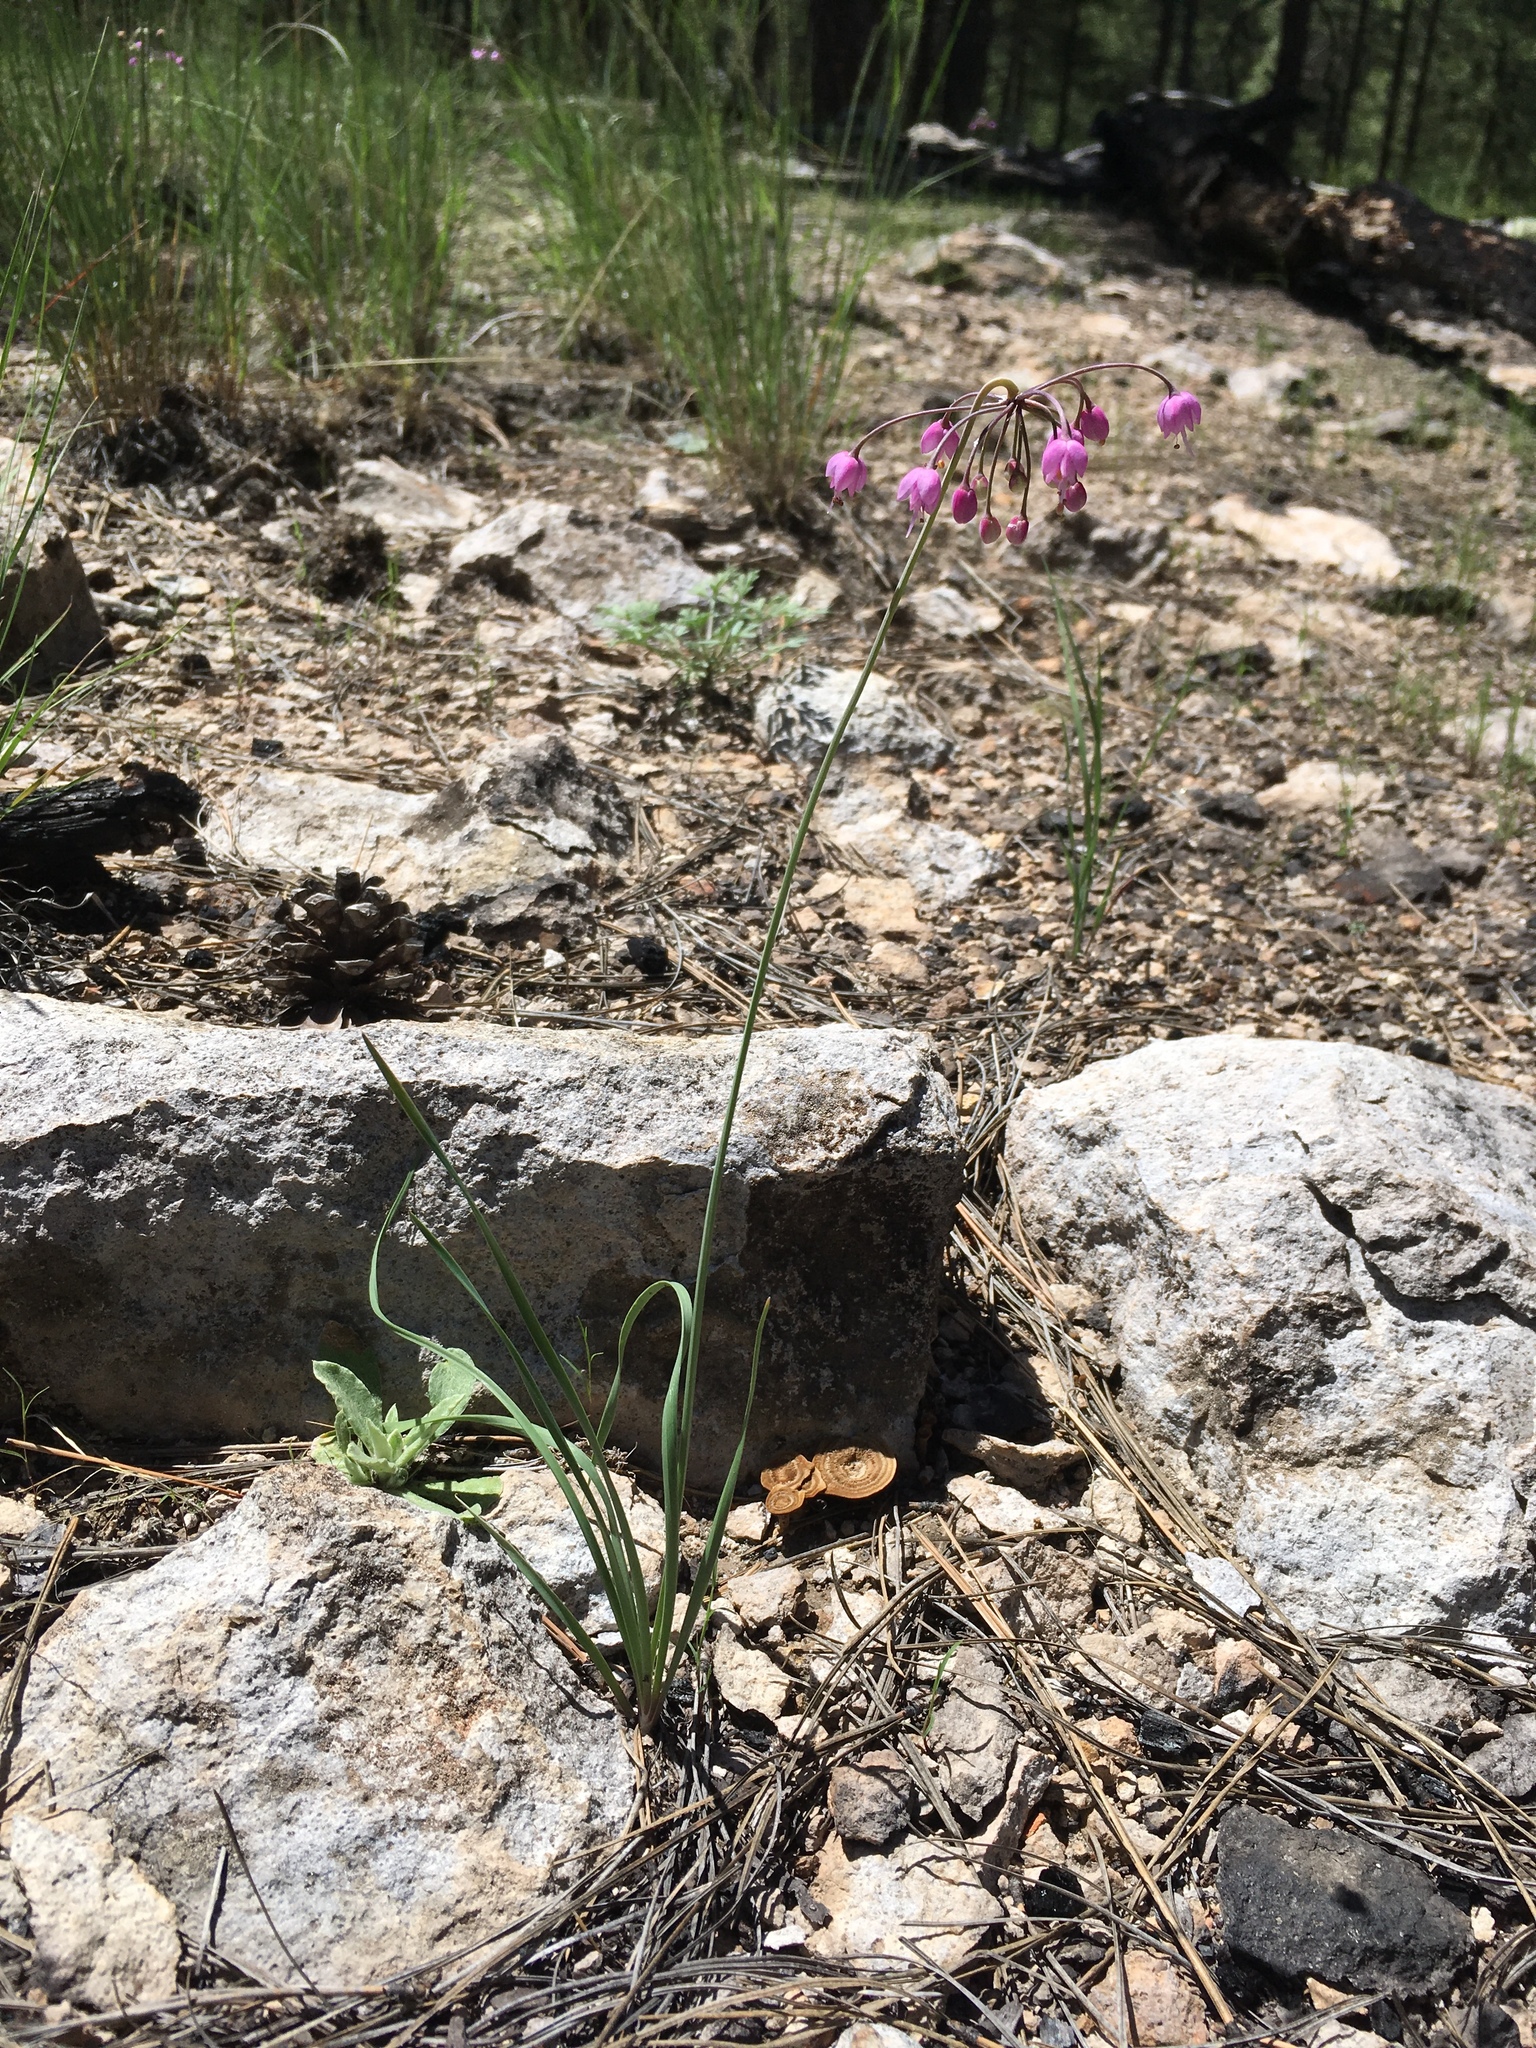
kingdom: Plantae
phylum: Tracheophyta
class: Liliopsida
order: Asparagales
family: Amaryllidaceae
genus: Allium
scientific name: Allium cernuum
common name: Nodding onion
